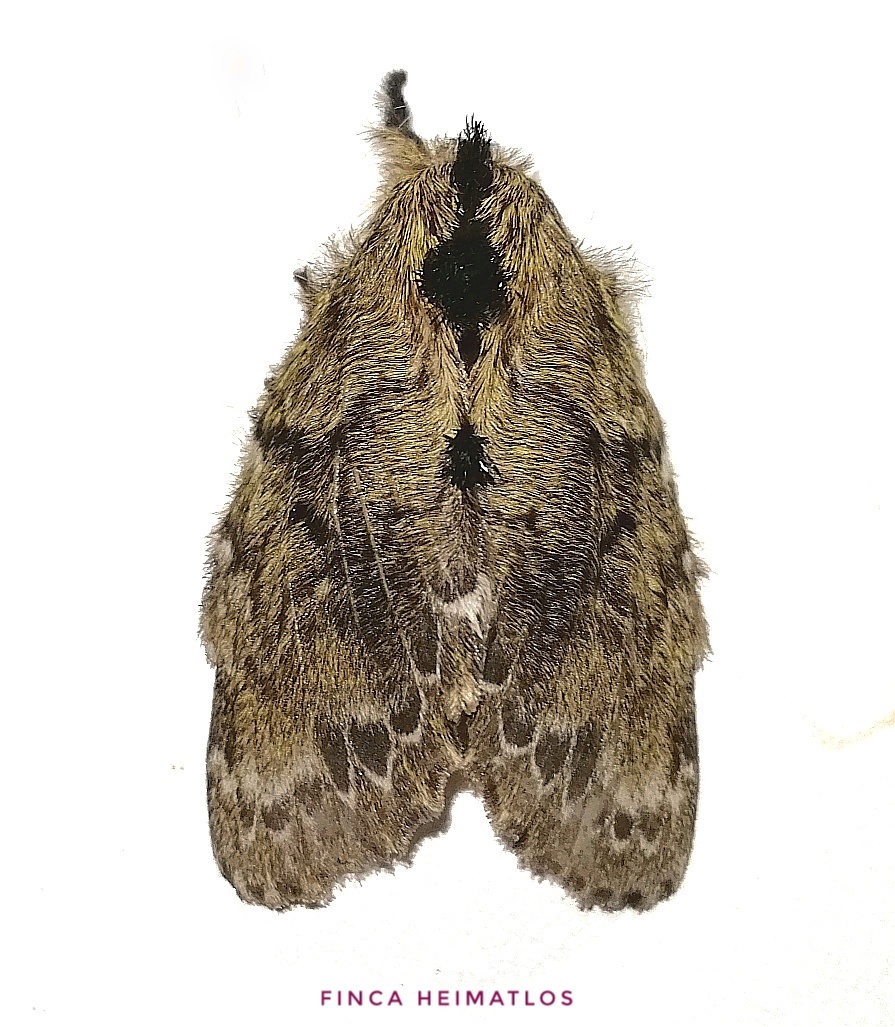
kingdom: Animalia
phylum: Arthropoda
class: Insecta
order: Lepidoptera
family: Lasiocampidae
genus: Euglyphis
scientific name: Euglyphis submarginalis
